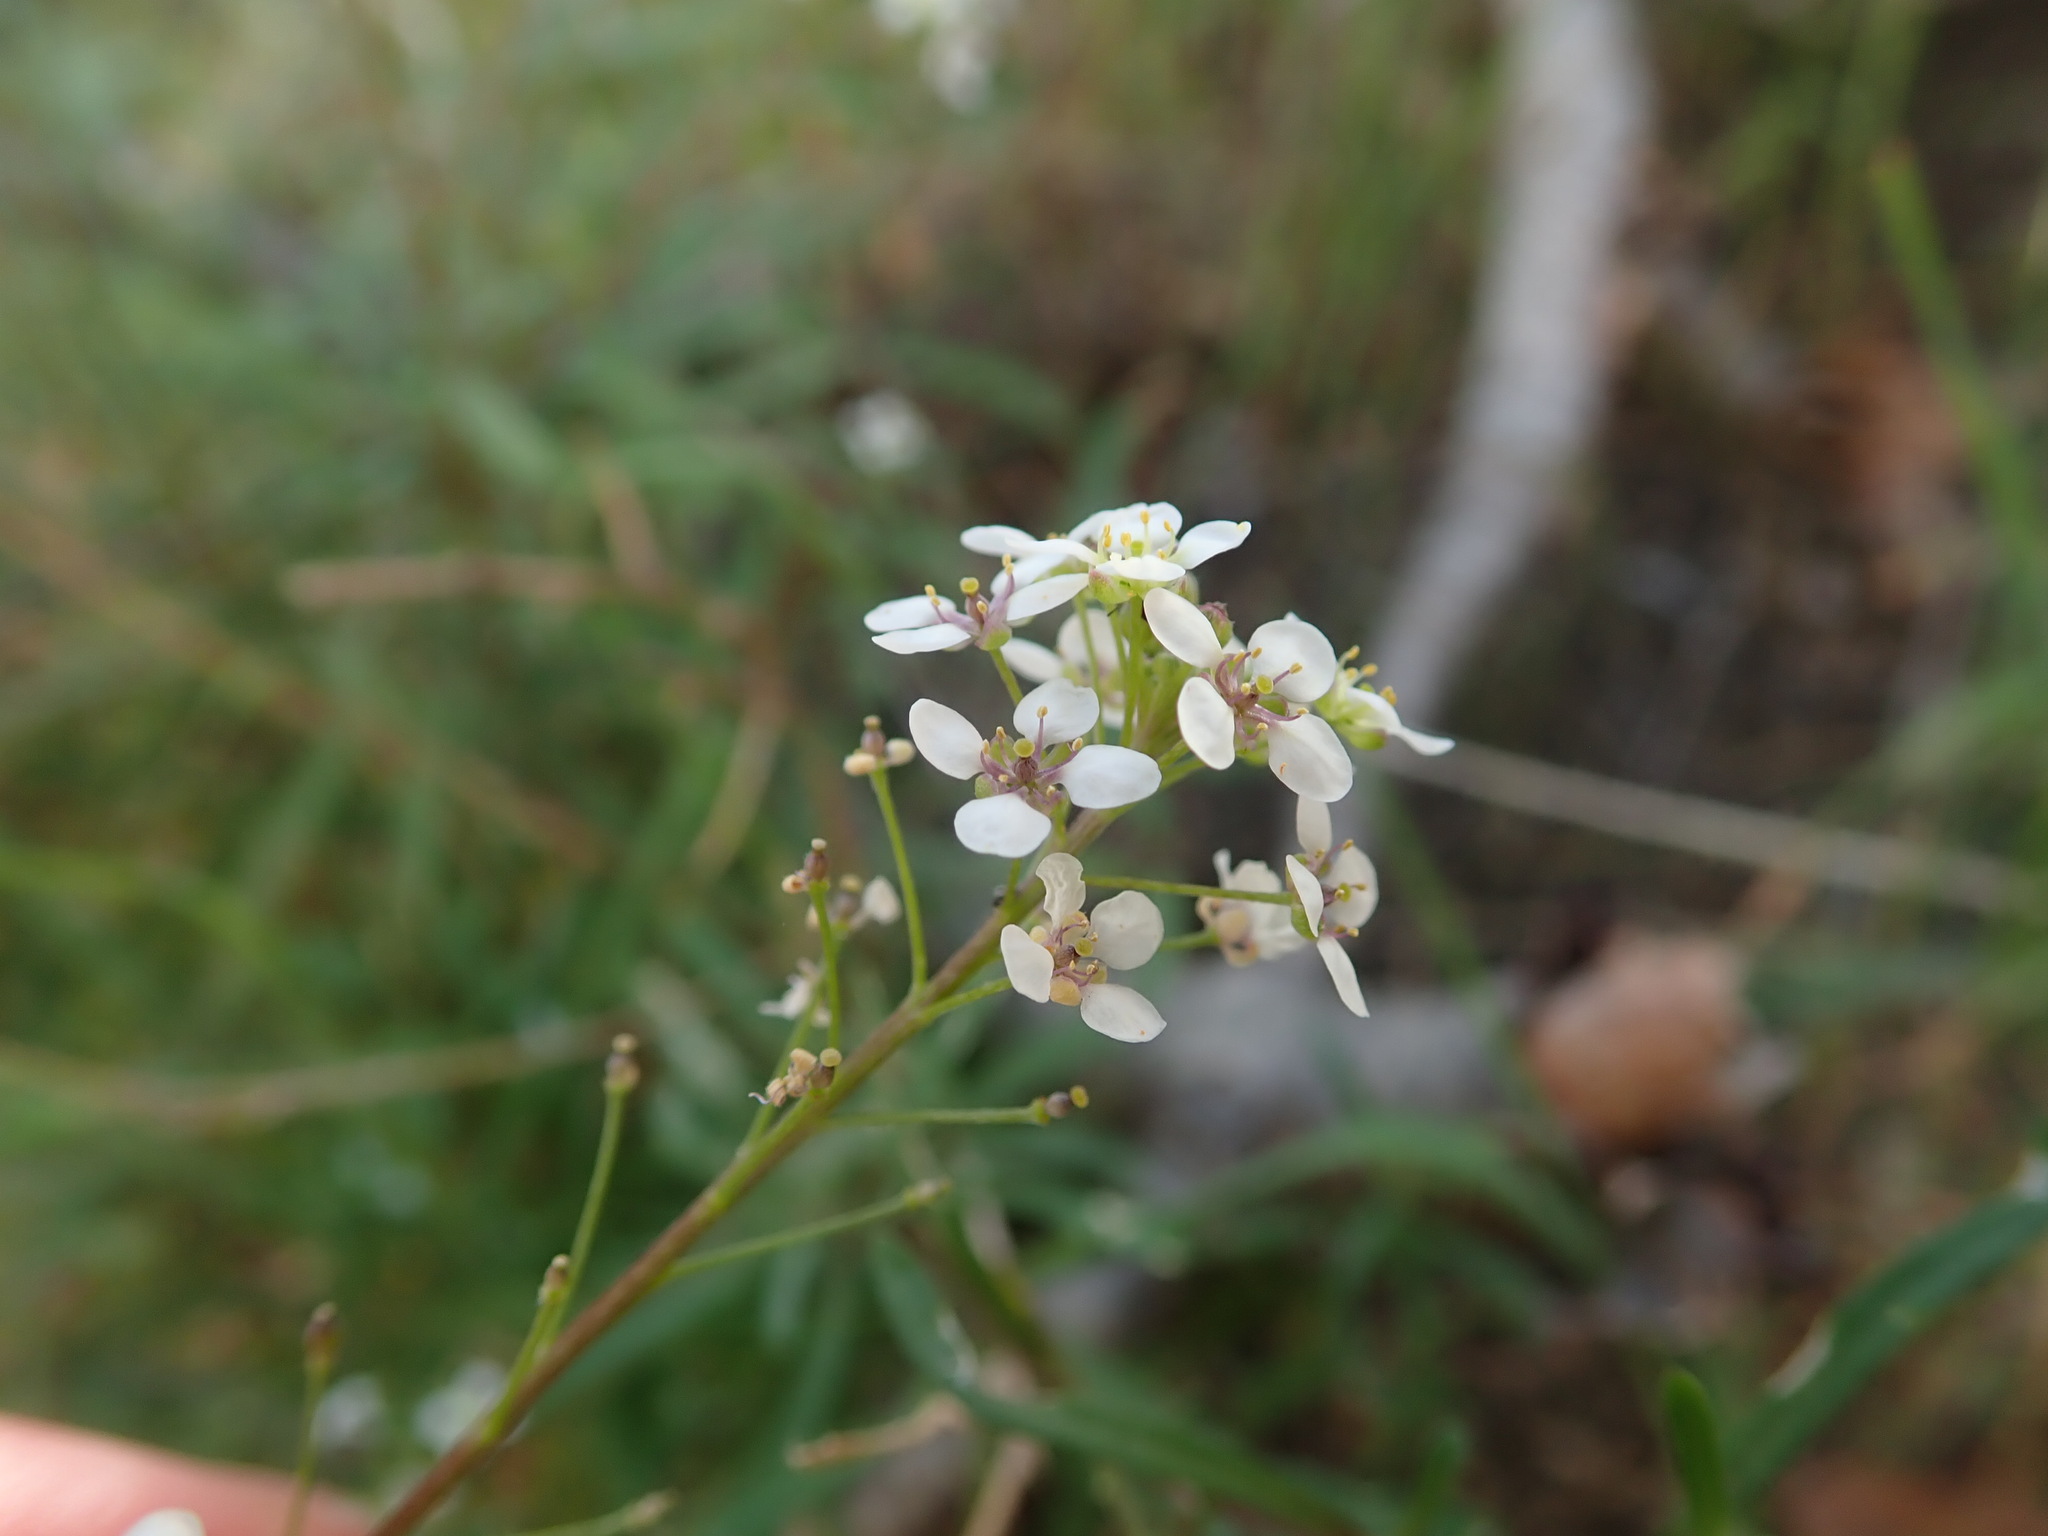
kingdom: Plantae
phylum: Tracheophyta
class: Magnoliopsida
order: Brassicales
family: Brassicaceae
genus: Lobularia
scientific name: Lobularia canariensis
